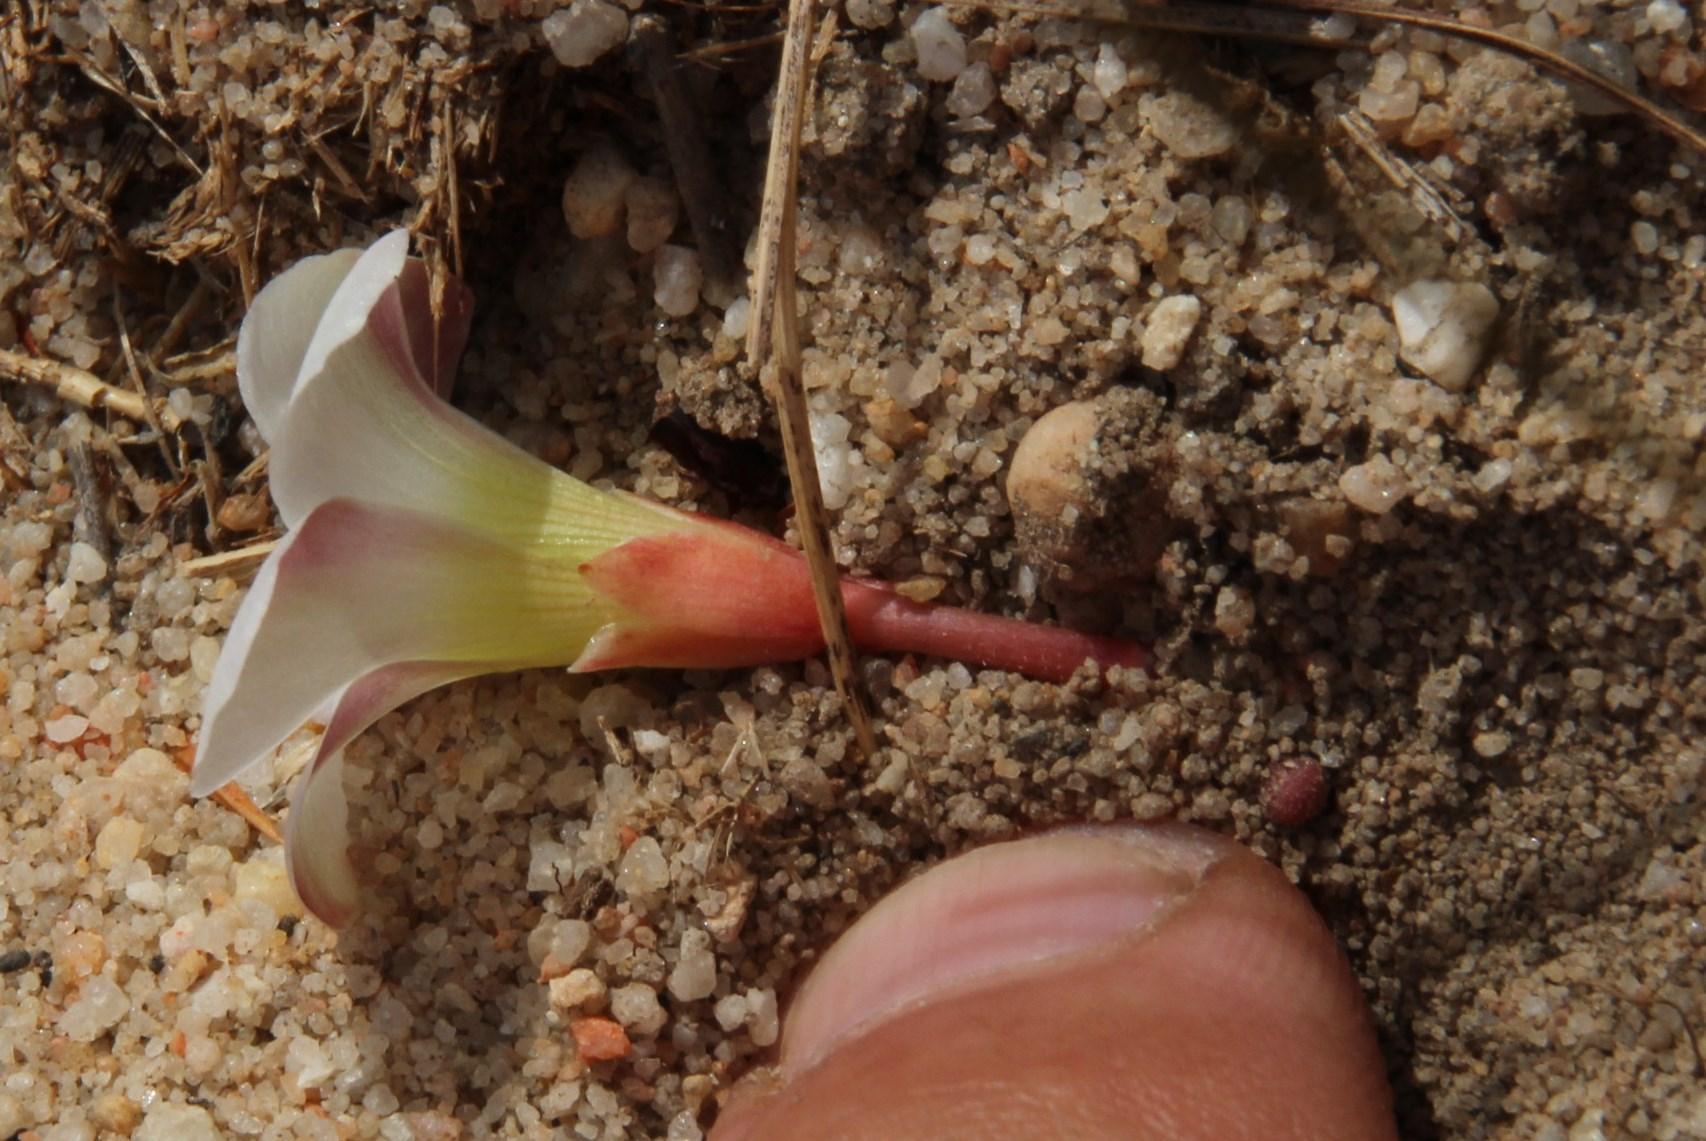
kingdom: Plantae
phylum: Tracheophyta
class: Magnoliopsida
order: Oxalidales
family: Oxalidaceae
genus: Oxalis
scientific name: Oxalis flava
